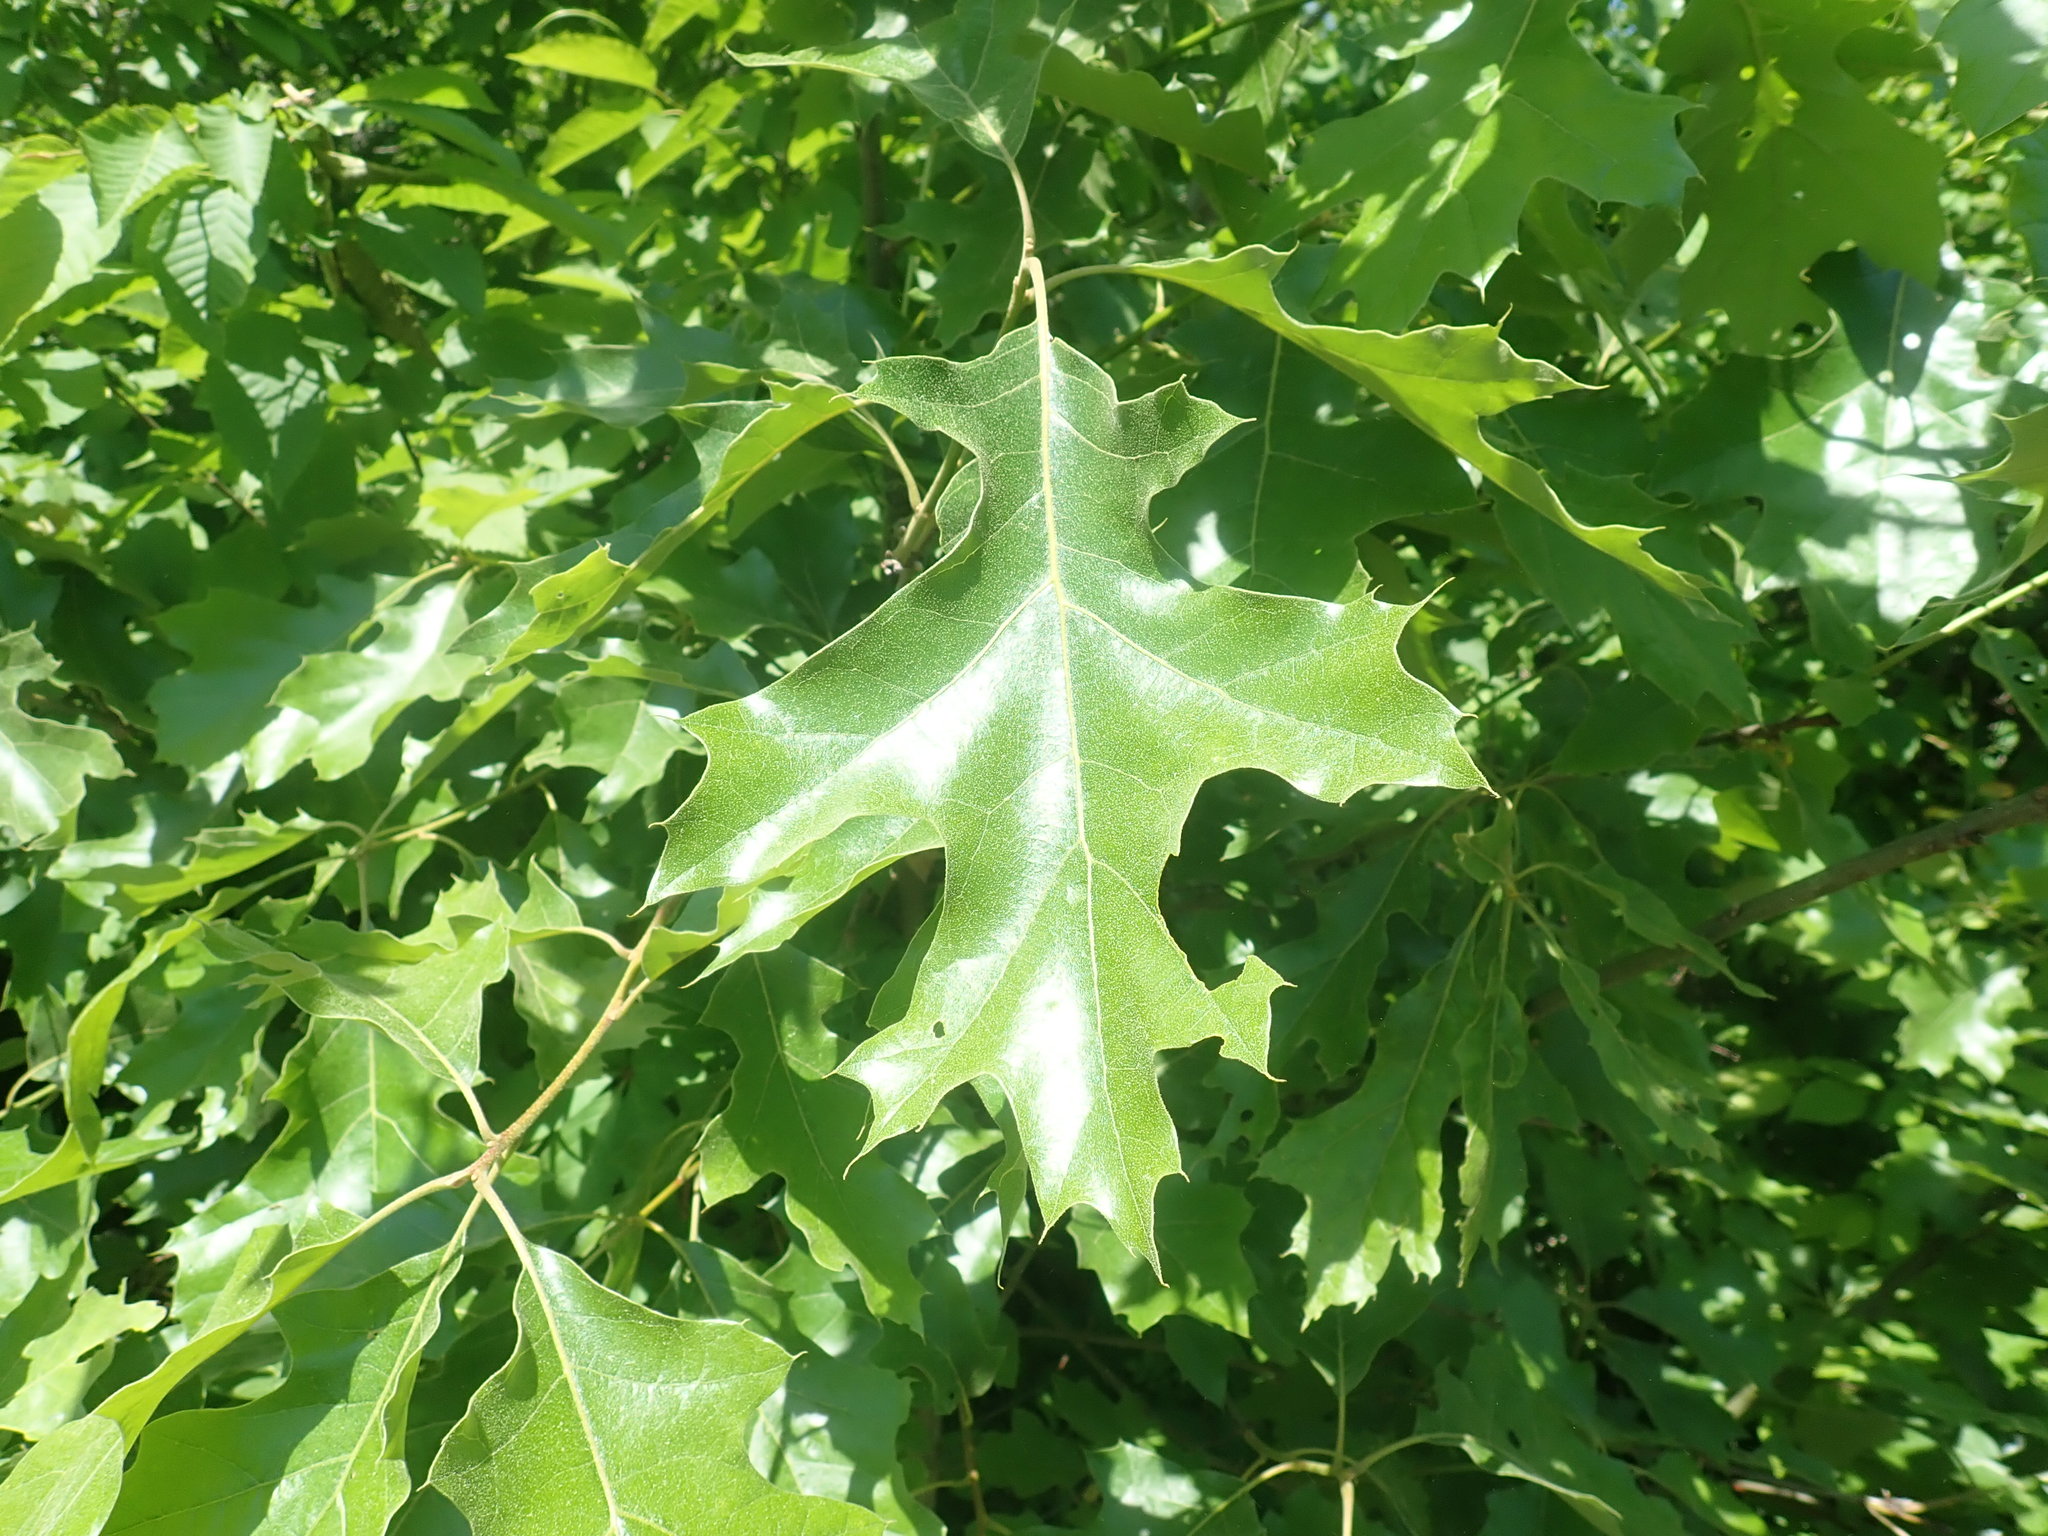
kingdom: Plantae
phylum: Tracheophyta
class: Magnoliopsida
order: Fagales
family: Fagaceae
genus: Quercus
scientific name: Quercus velutina
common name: Black oak
